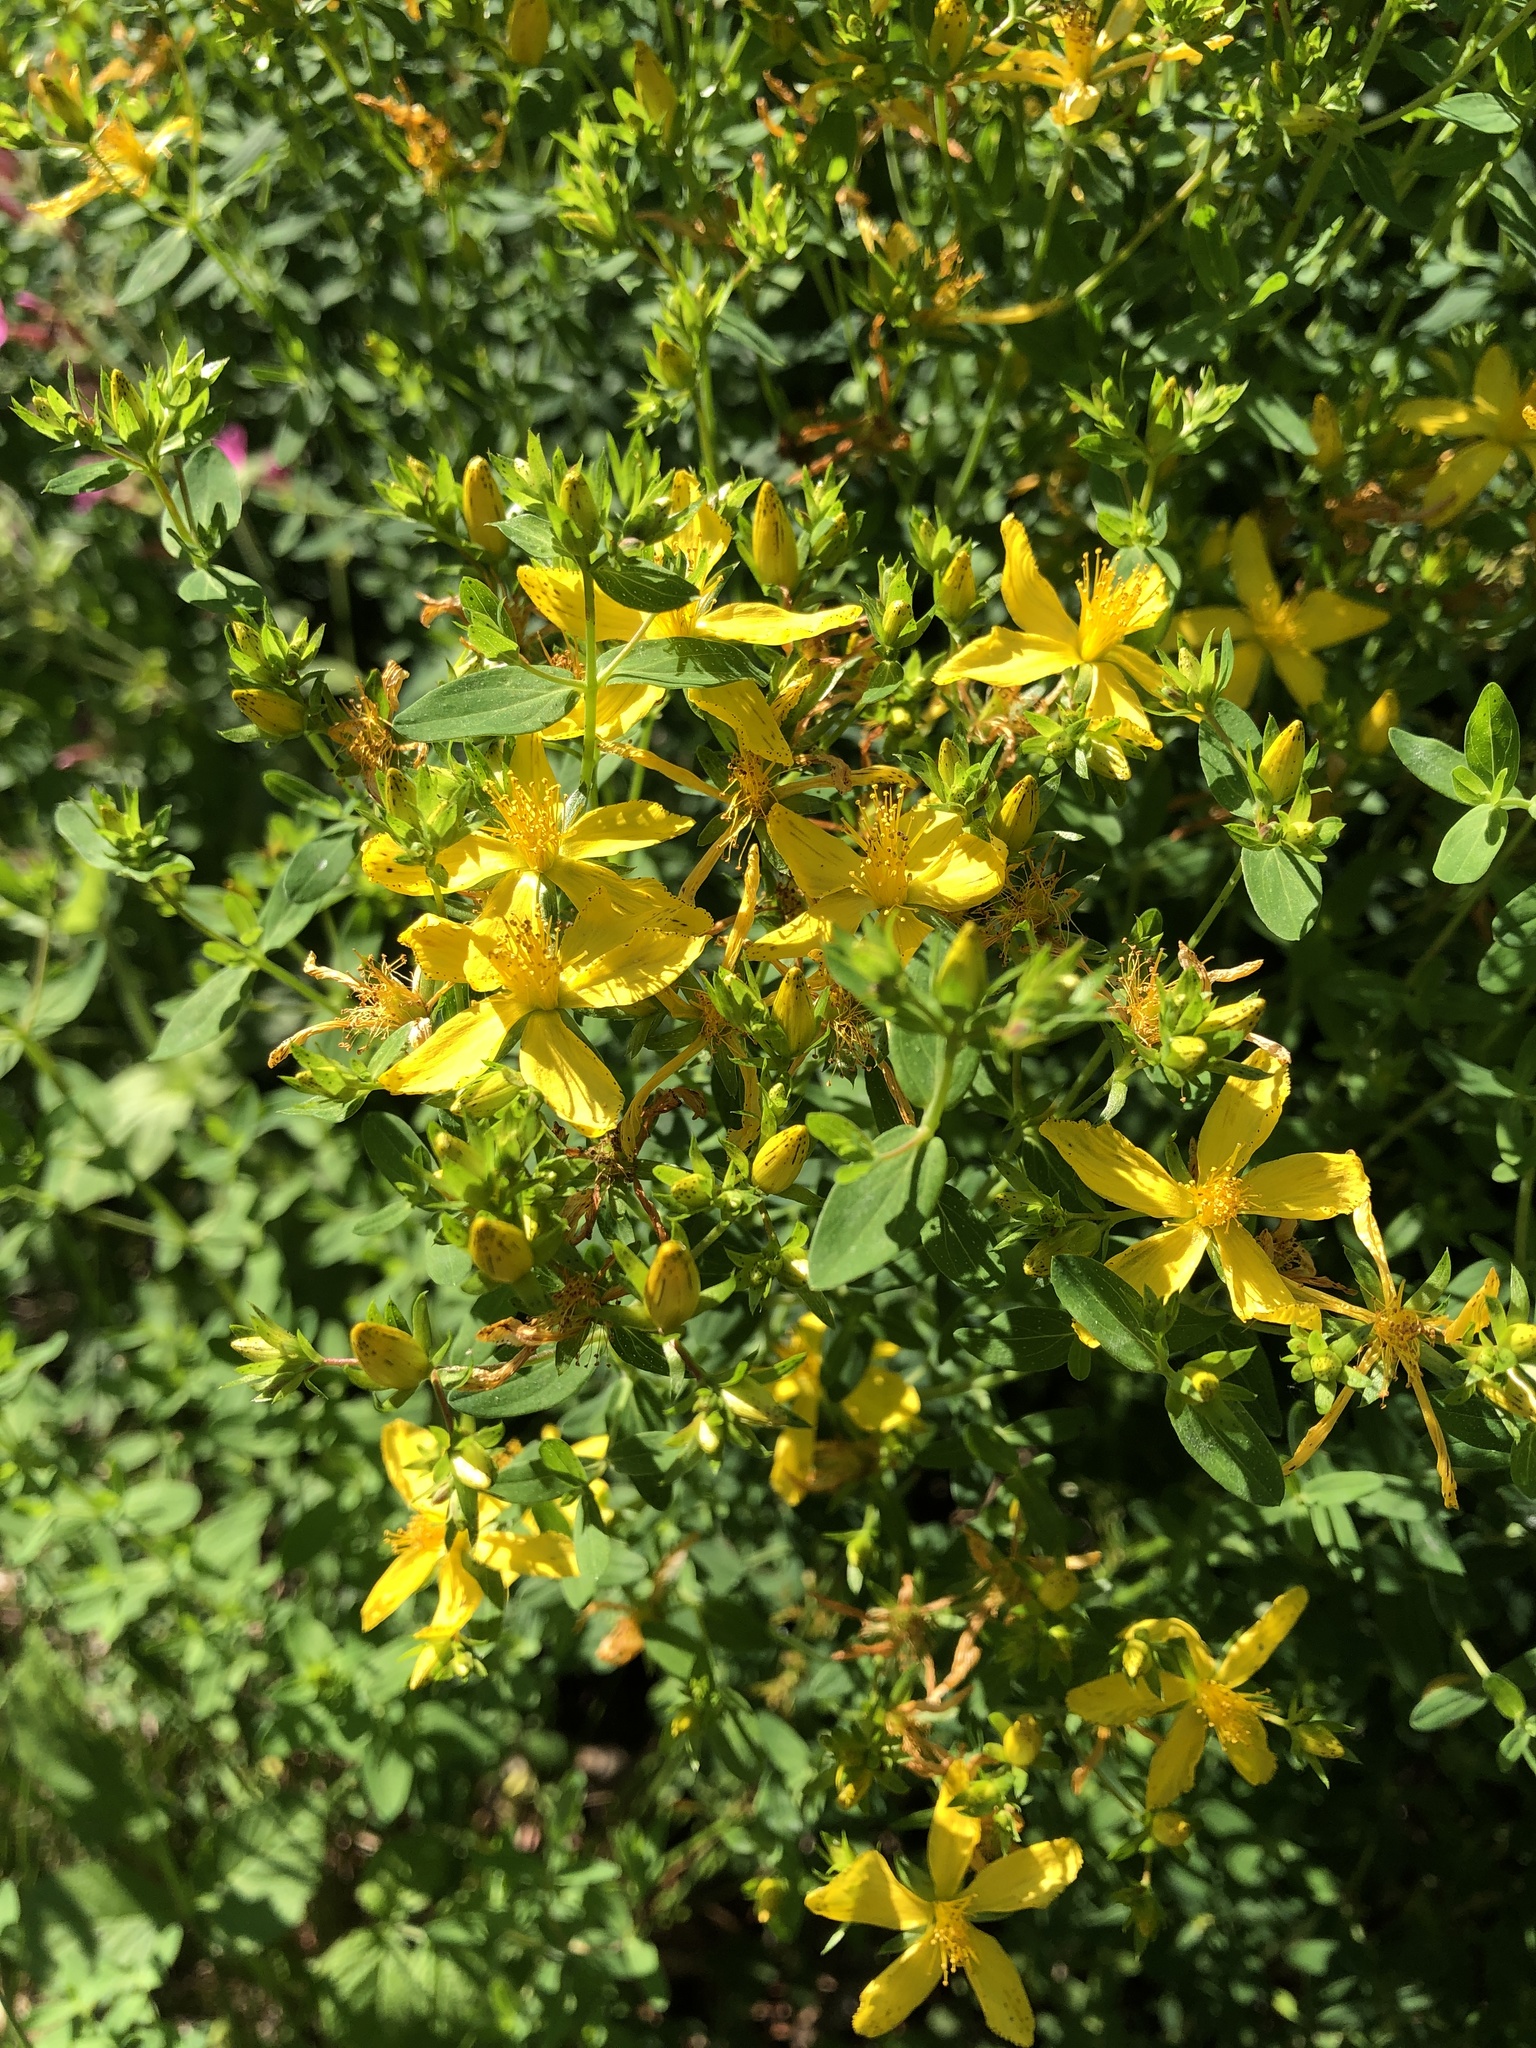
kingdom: Plantae
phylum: Tracheophyta
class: Magnoliopsida
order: Malpighiales
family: Hypericaceae
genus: Hypericum
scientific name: Hypericum perforatum
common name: Common st. johnswort
